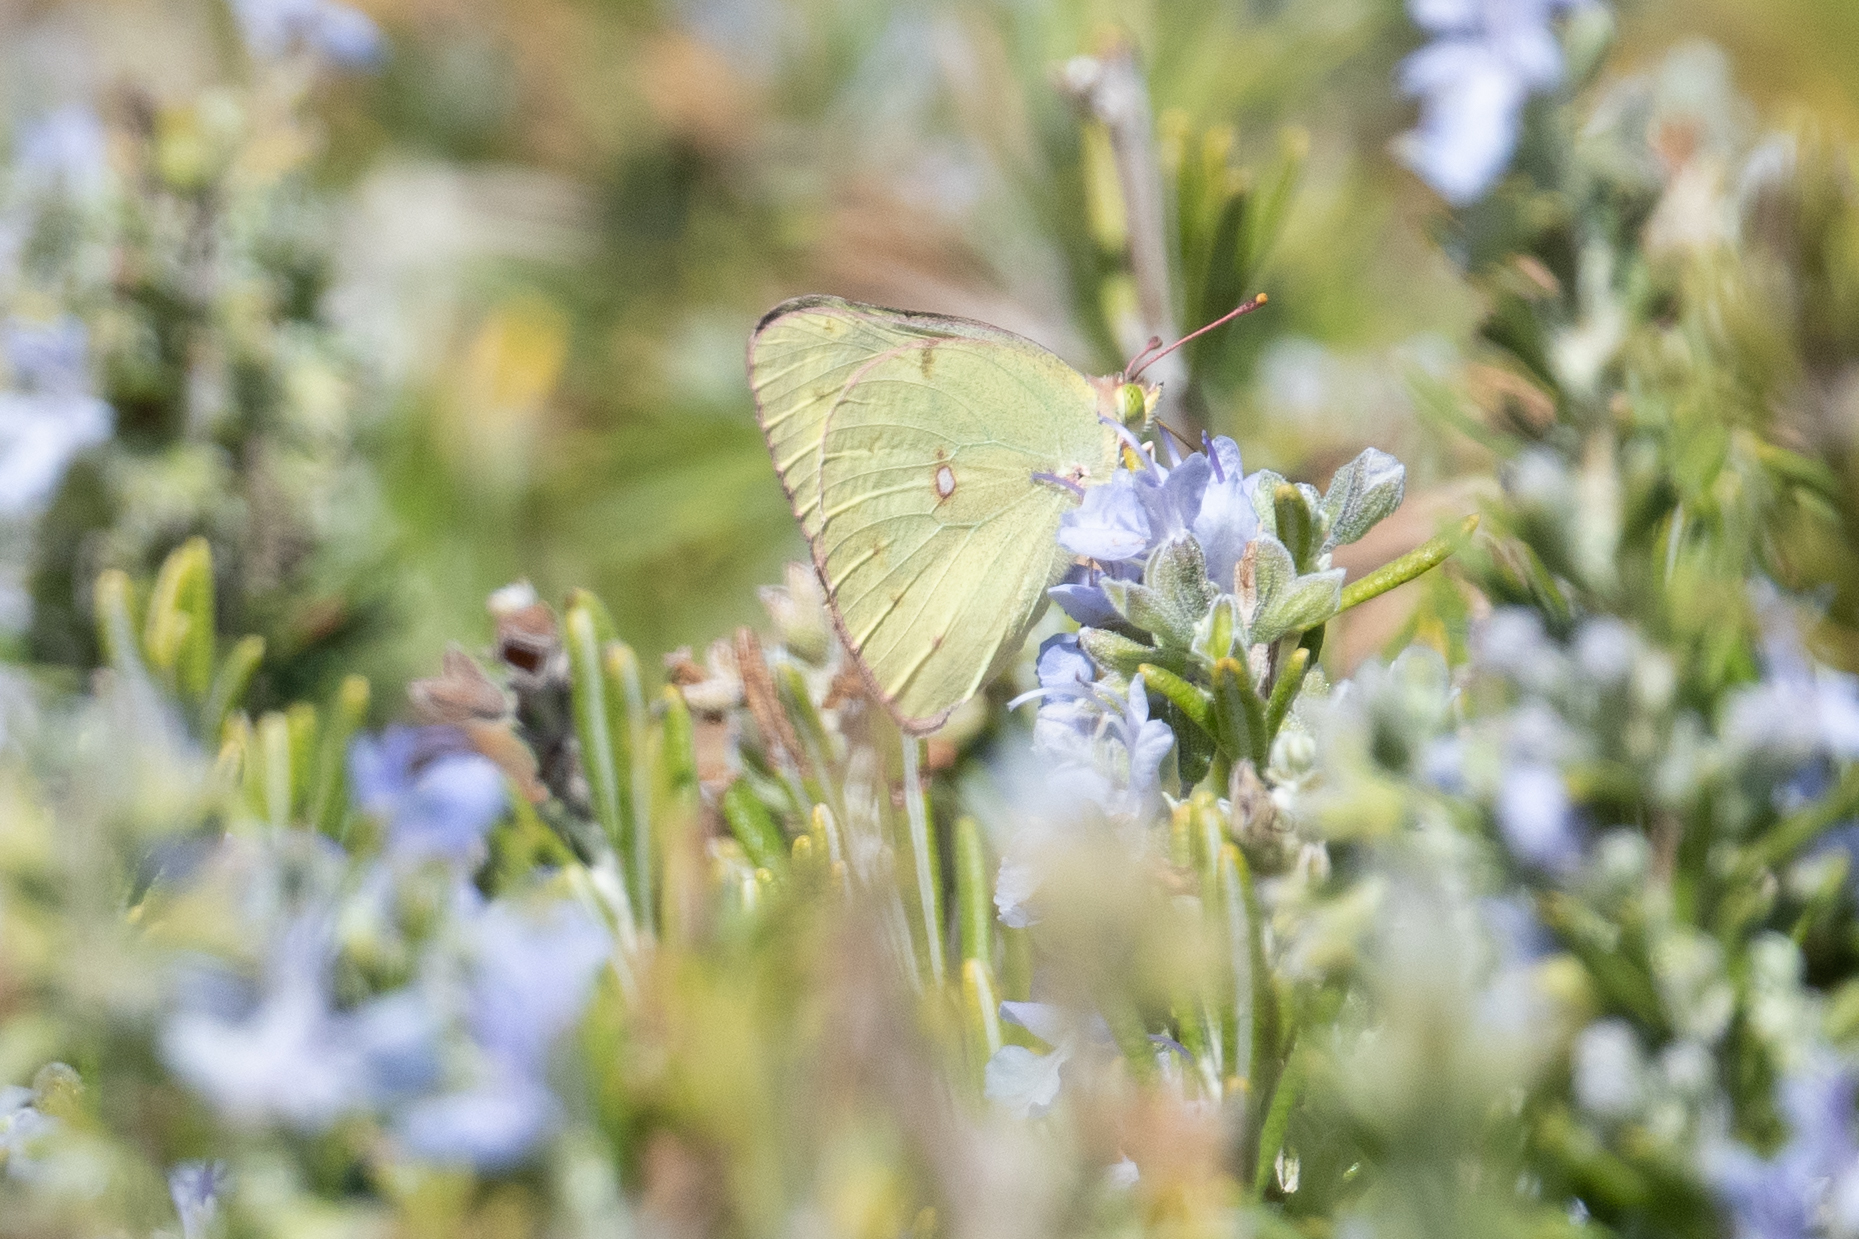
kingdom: Animalia
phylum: Arthropoda
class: Insecta
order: Lepidoptera
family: Pieridae
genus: Colias
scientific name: Colias eurytheme
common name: Alfalfa butterfly
